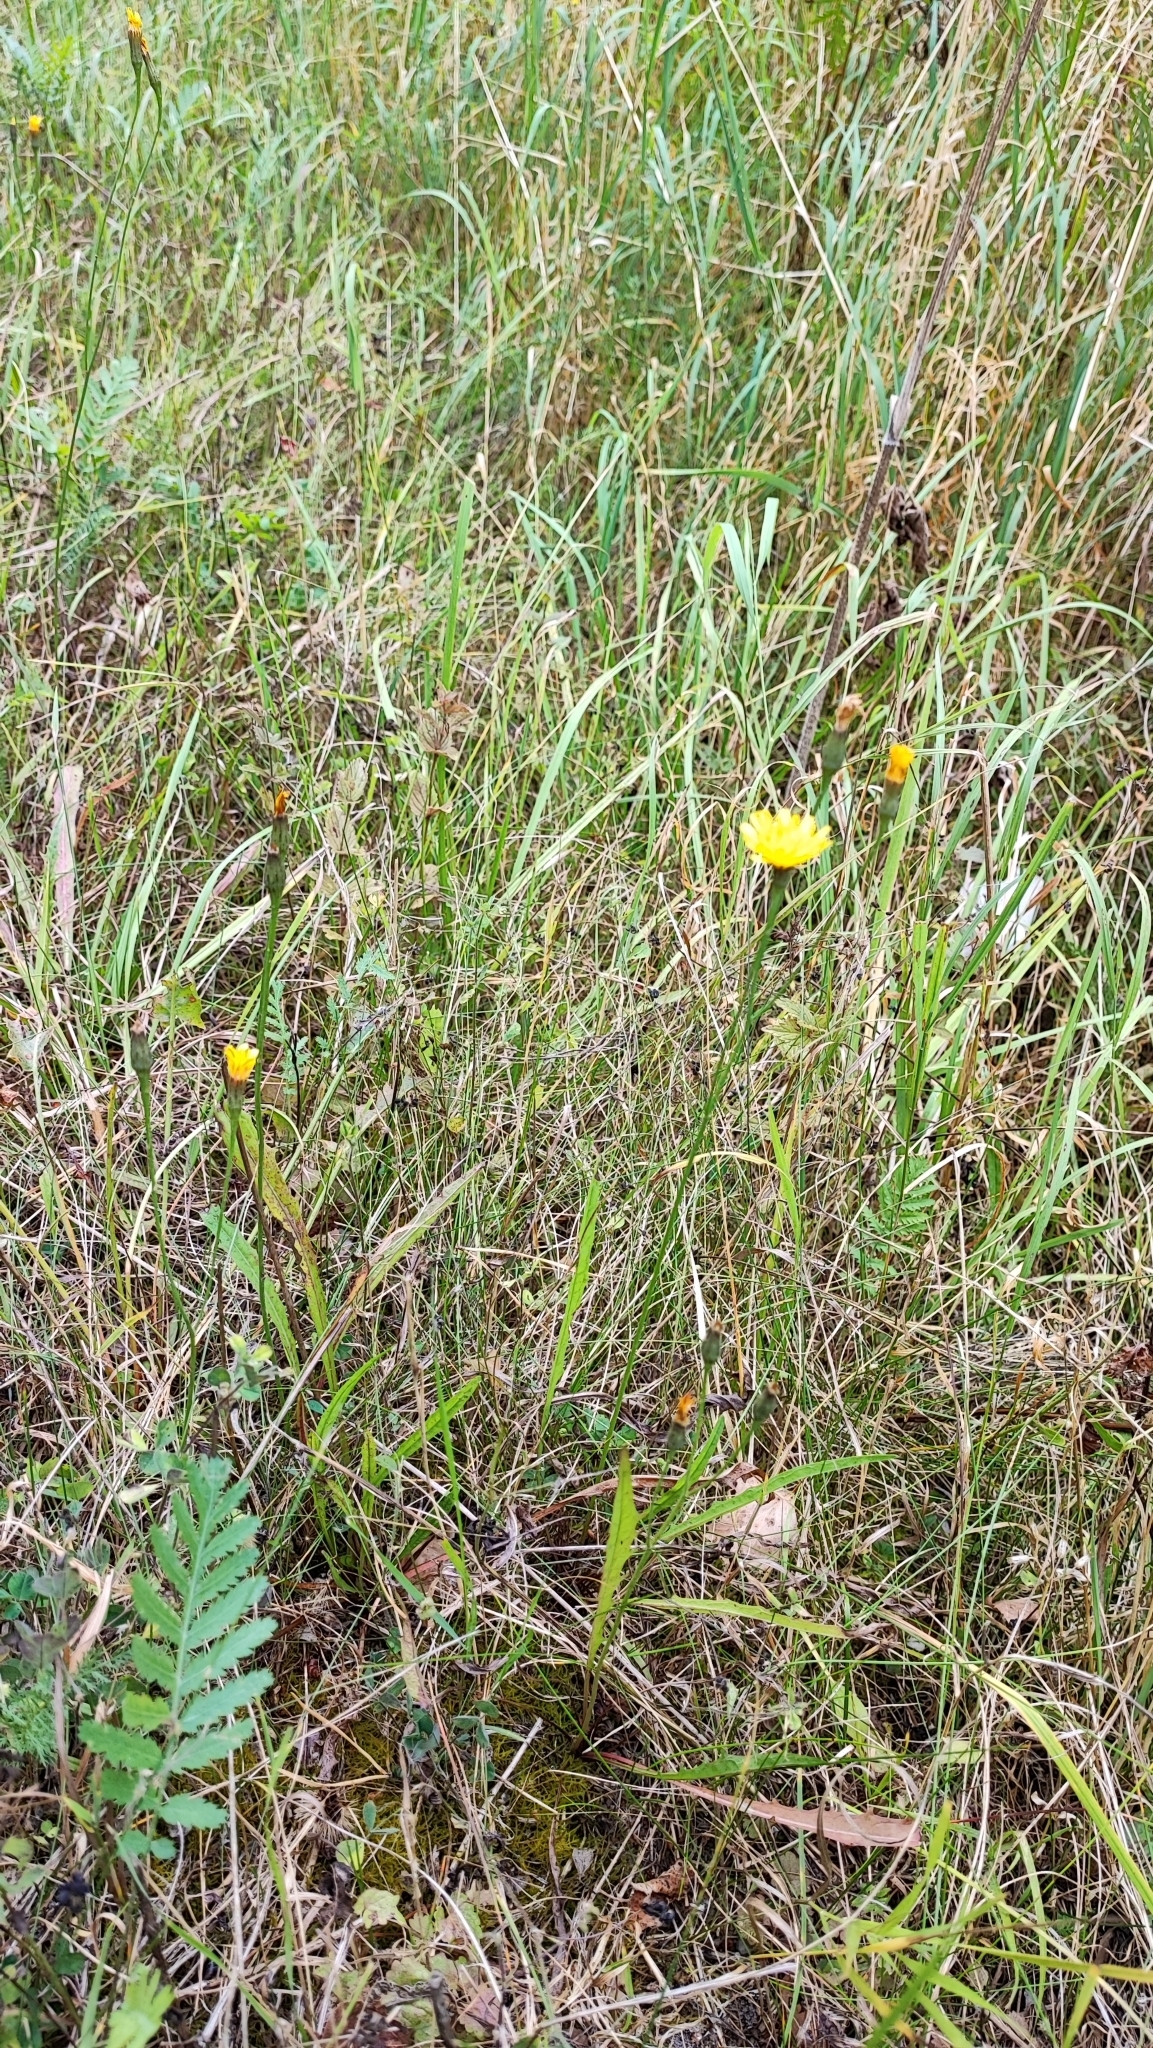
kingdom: Plantae
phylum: Tracheophyta
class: Magnoliopsida
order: Asterales
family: Asteraceae
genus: Scorzoneroides
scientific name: Scorzoneroides autumnalis
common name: Autumn hawkbit
